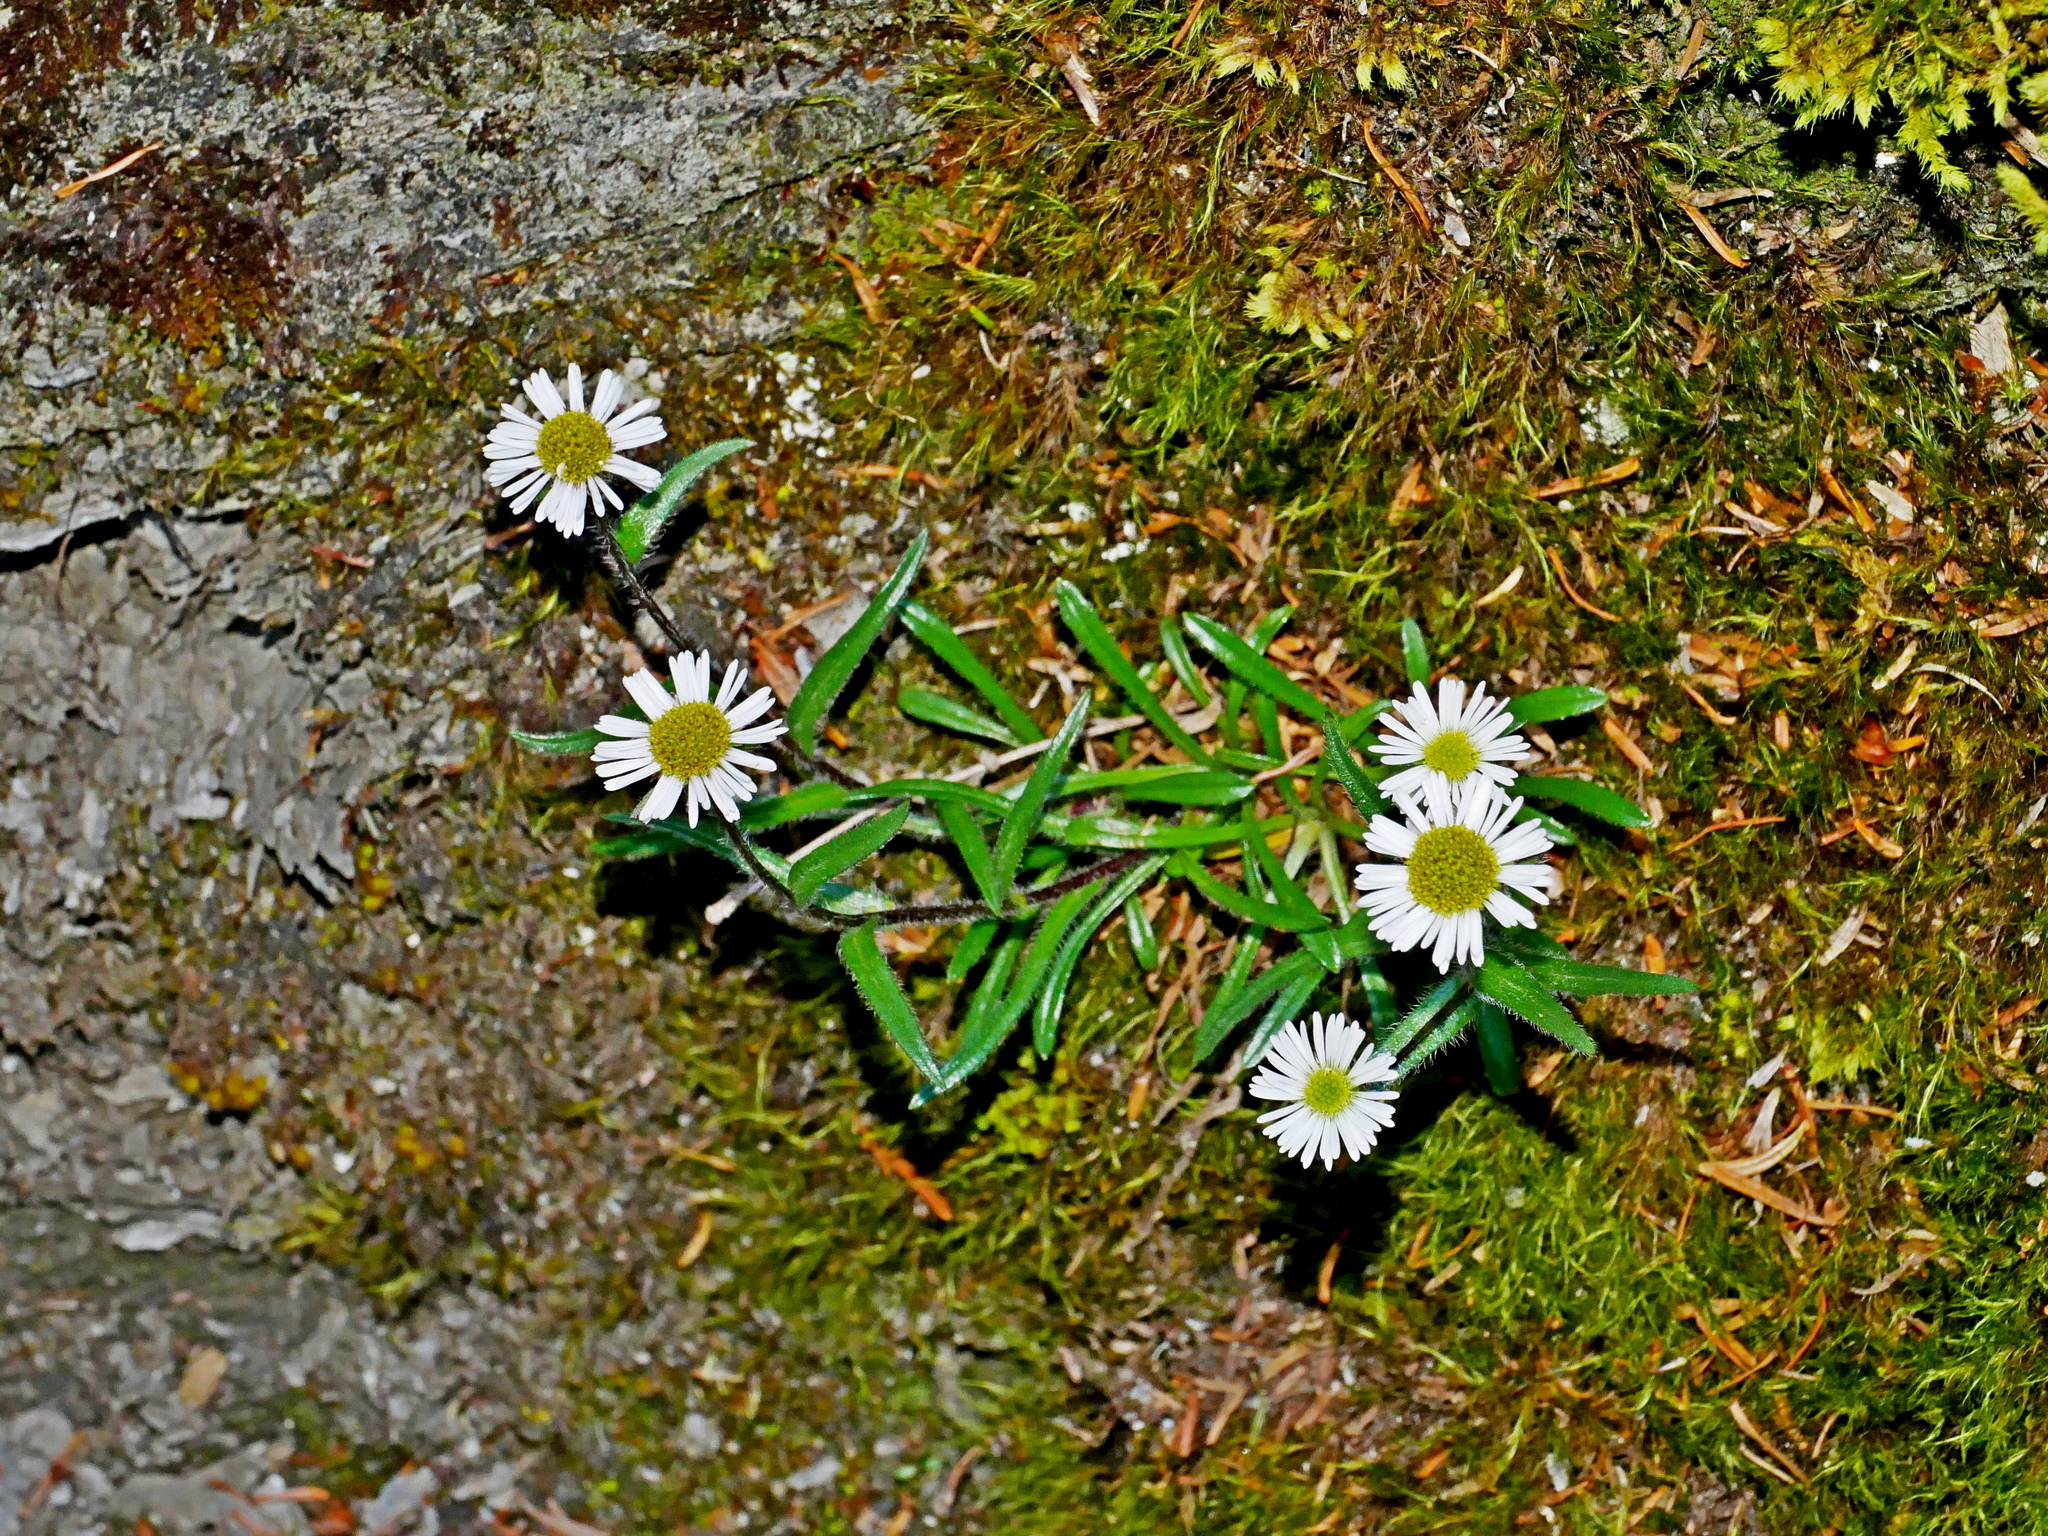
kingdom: Plantae
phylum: Tracheophyta
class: Magnoliopsida
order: Asterales
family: Asteraceae
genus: Erigeron
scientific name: Erigeron morrisonensis
